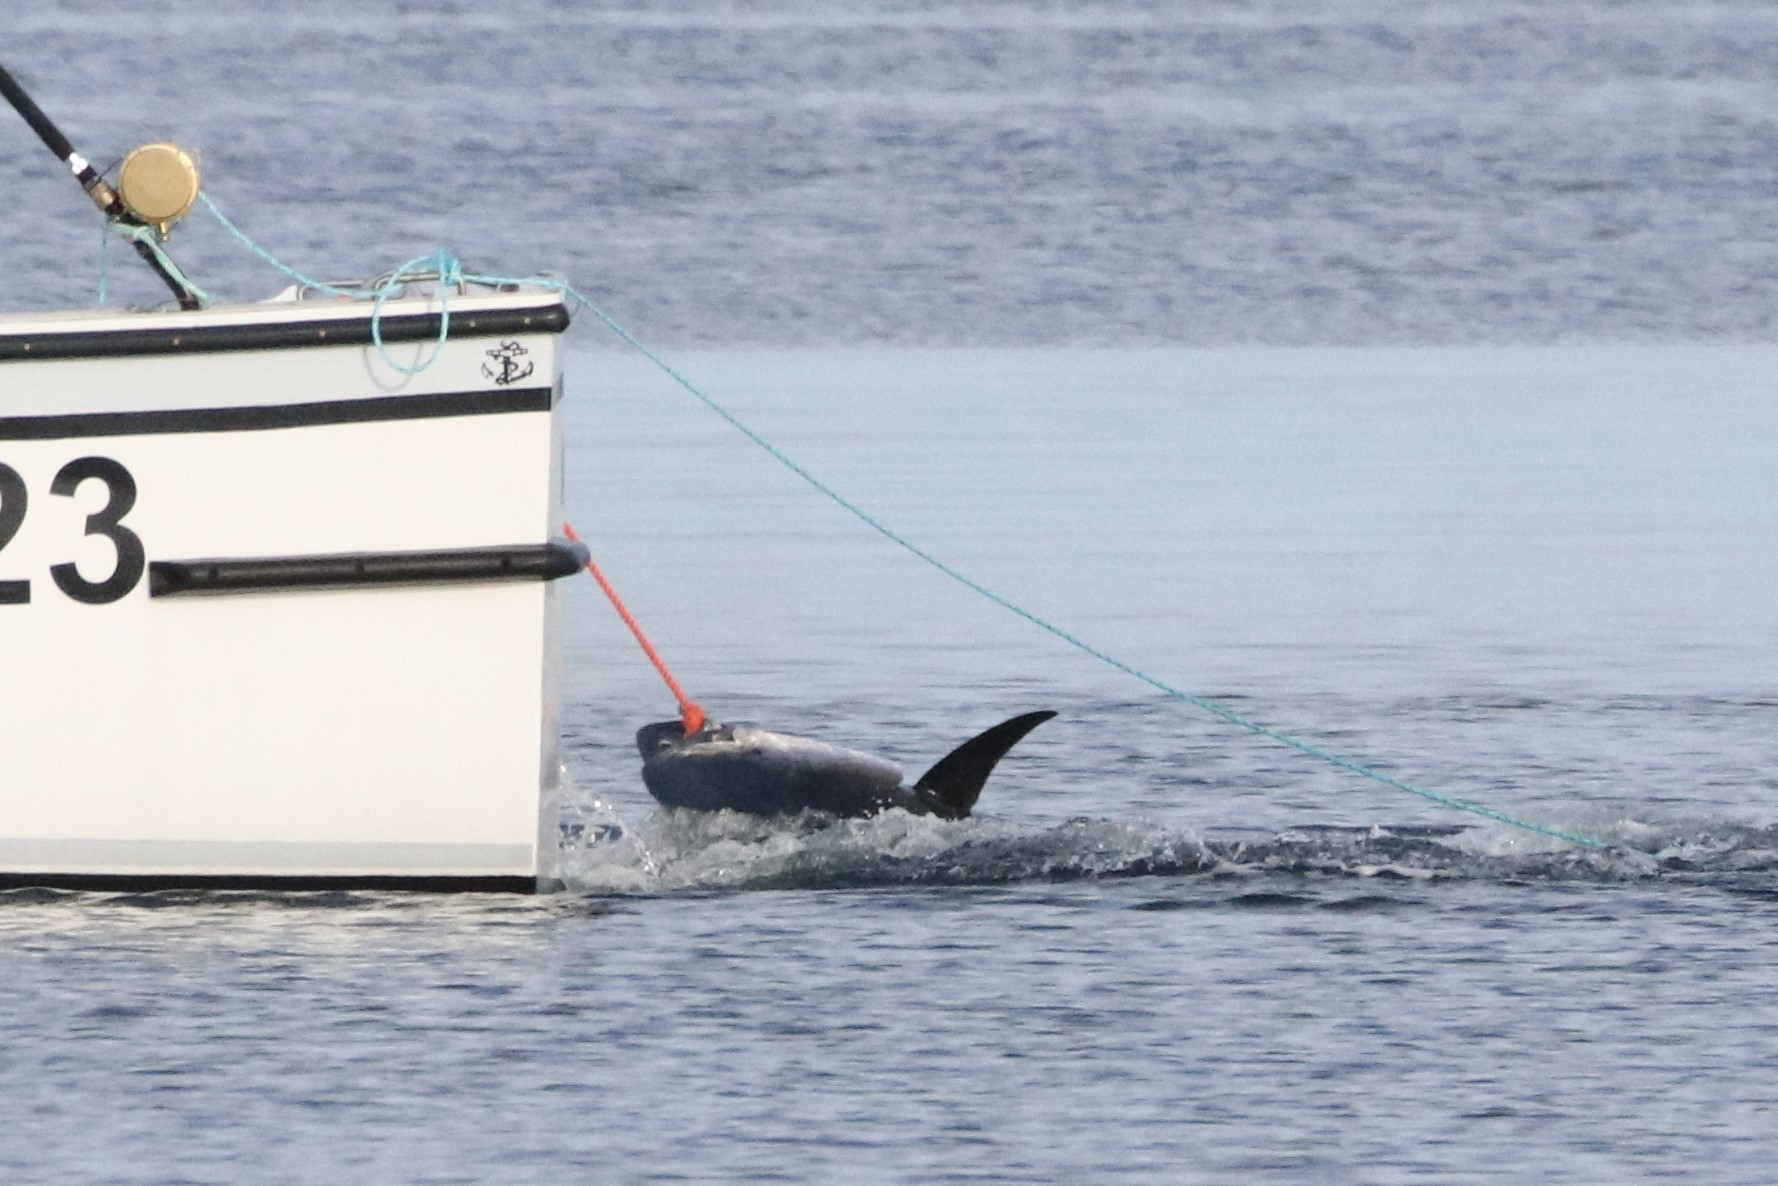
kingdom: Animalia
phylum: Chordata
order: Perciformes
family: Scombridae
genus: Thunnus
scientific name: Thunnus thynnus
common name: Bluefin tuna
